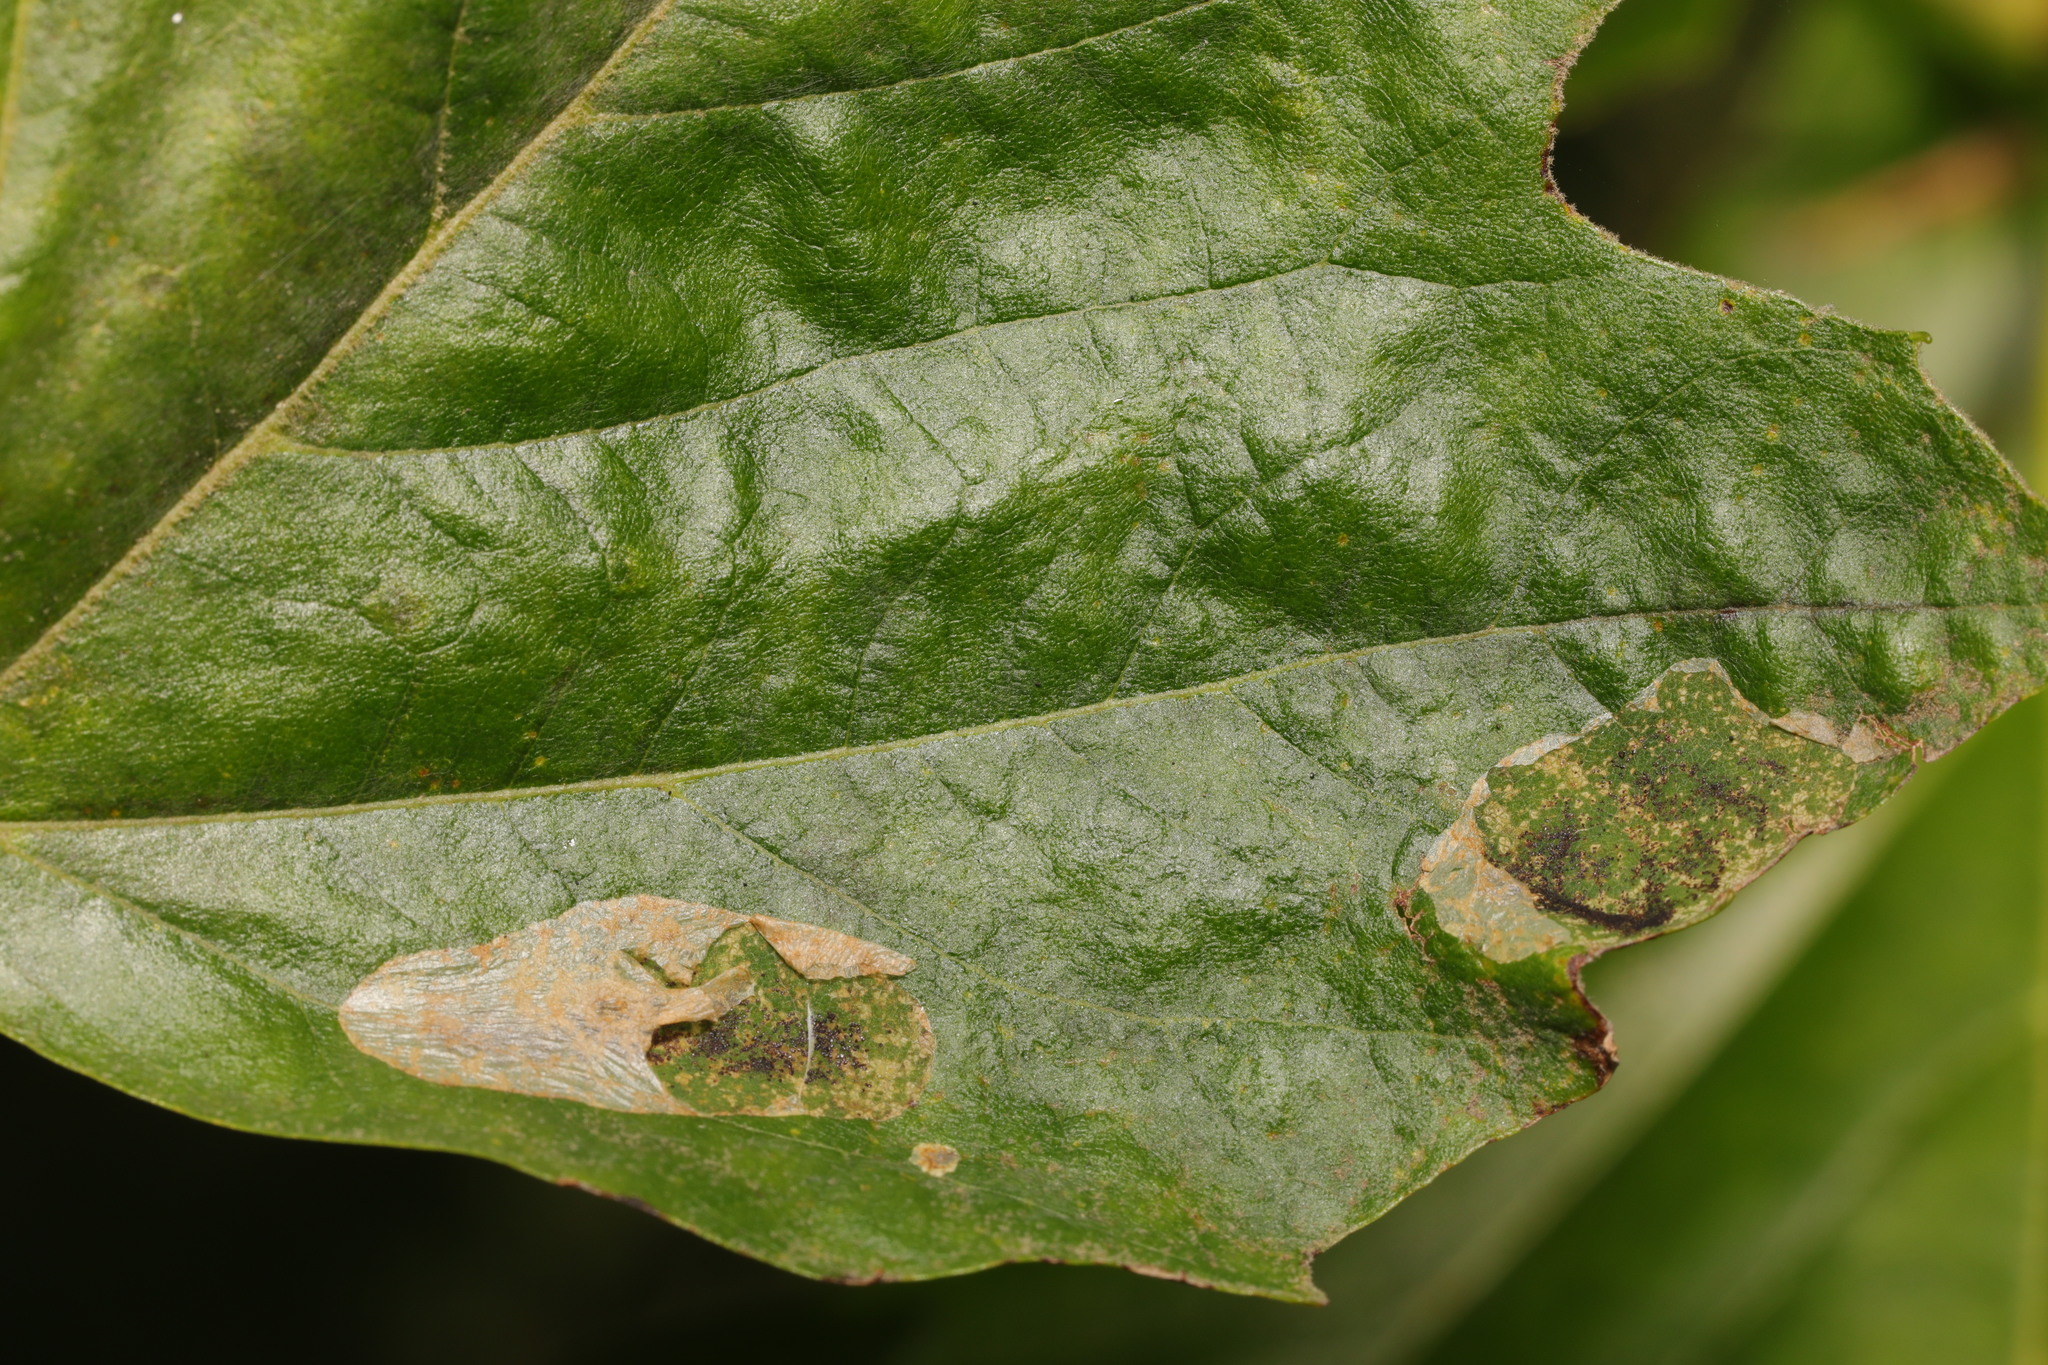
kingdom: Animalia
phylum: Arthropoda
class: Insecta
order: Lepidoptera
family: Gracillariidae
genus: Phyllonorycter
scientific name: Phyllonorycter platani
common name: London midget
